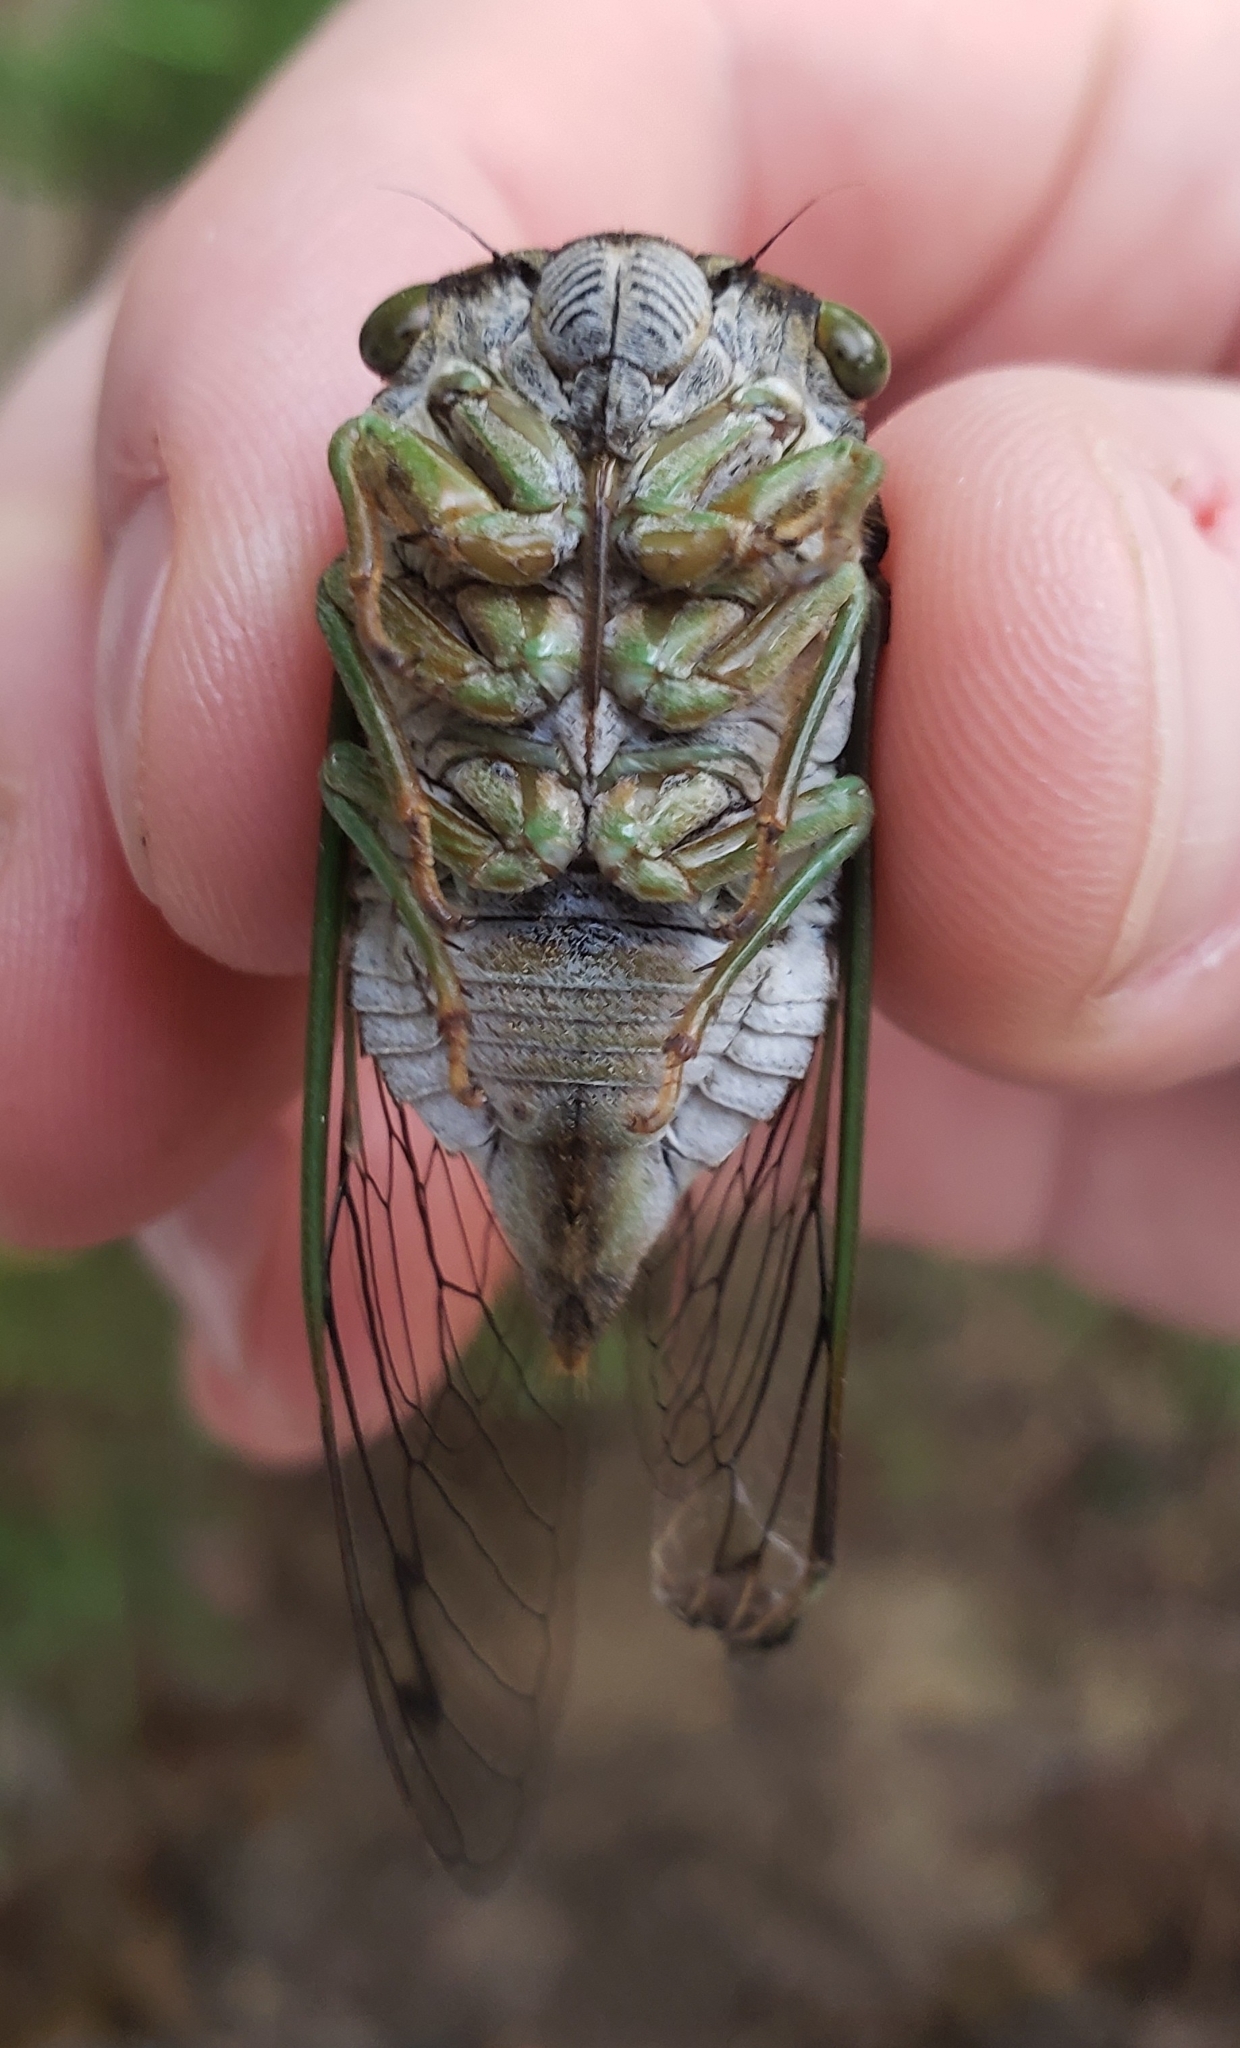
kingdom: Animalia
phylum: Arthropoda
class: Insecta
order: Hemiptera
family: Cicadidae
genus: Neotibicen
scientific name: Neotibicen tibicen
